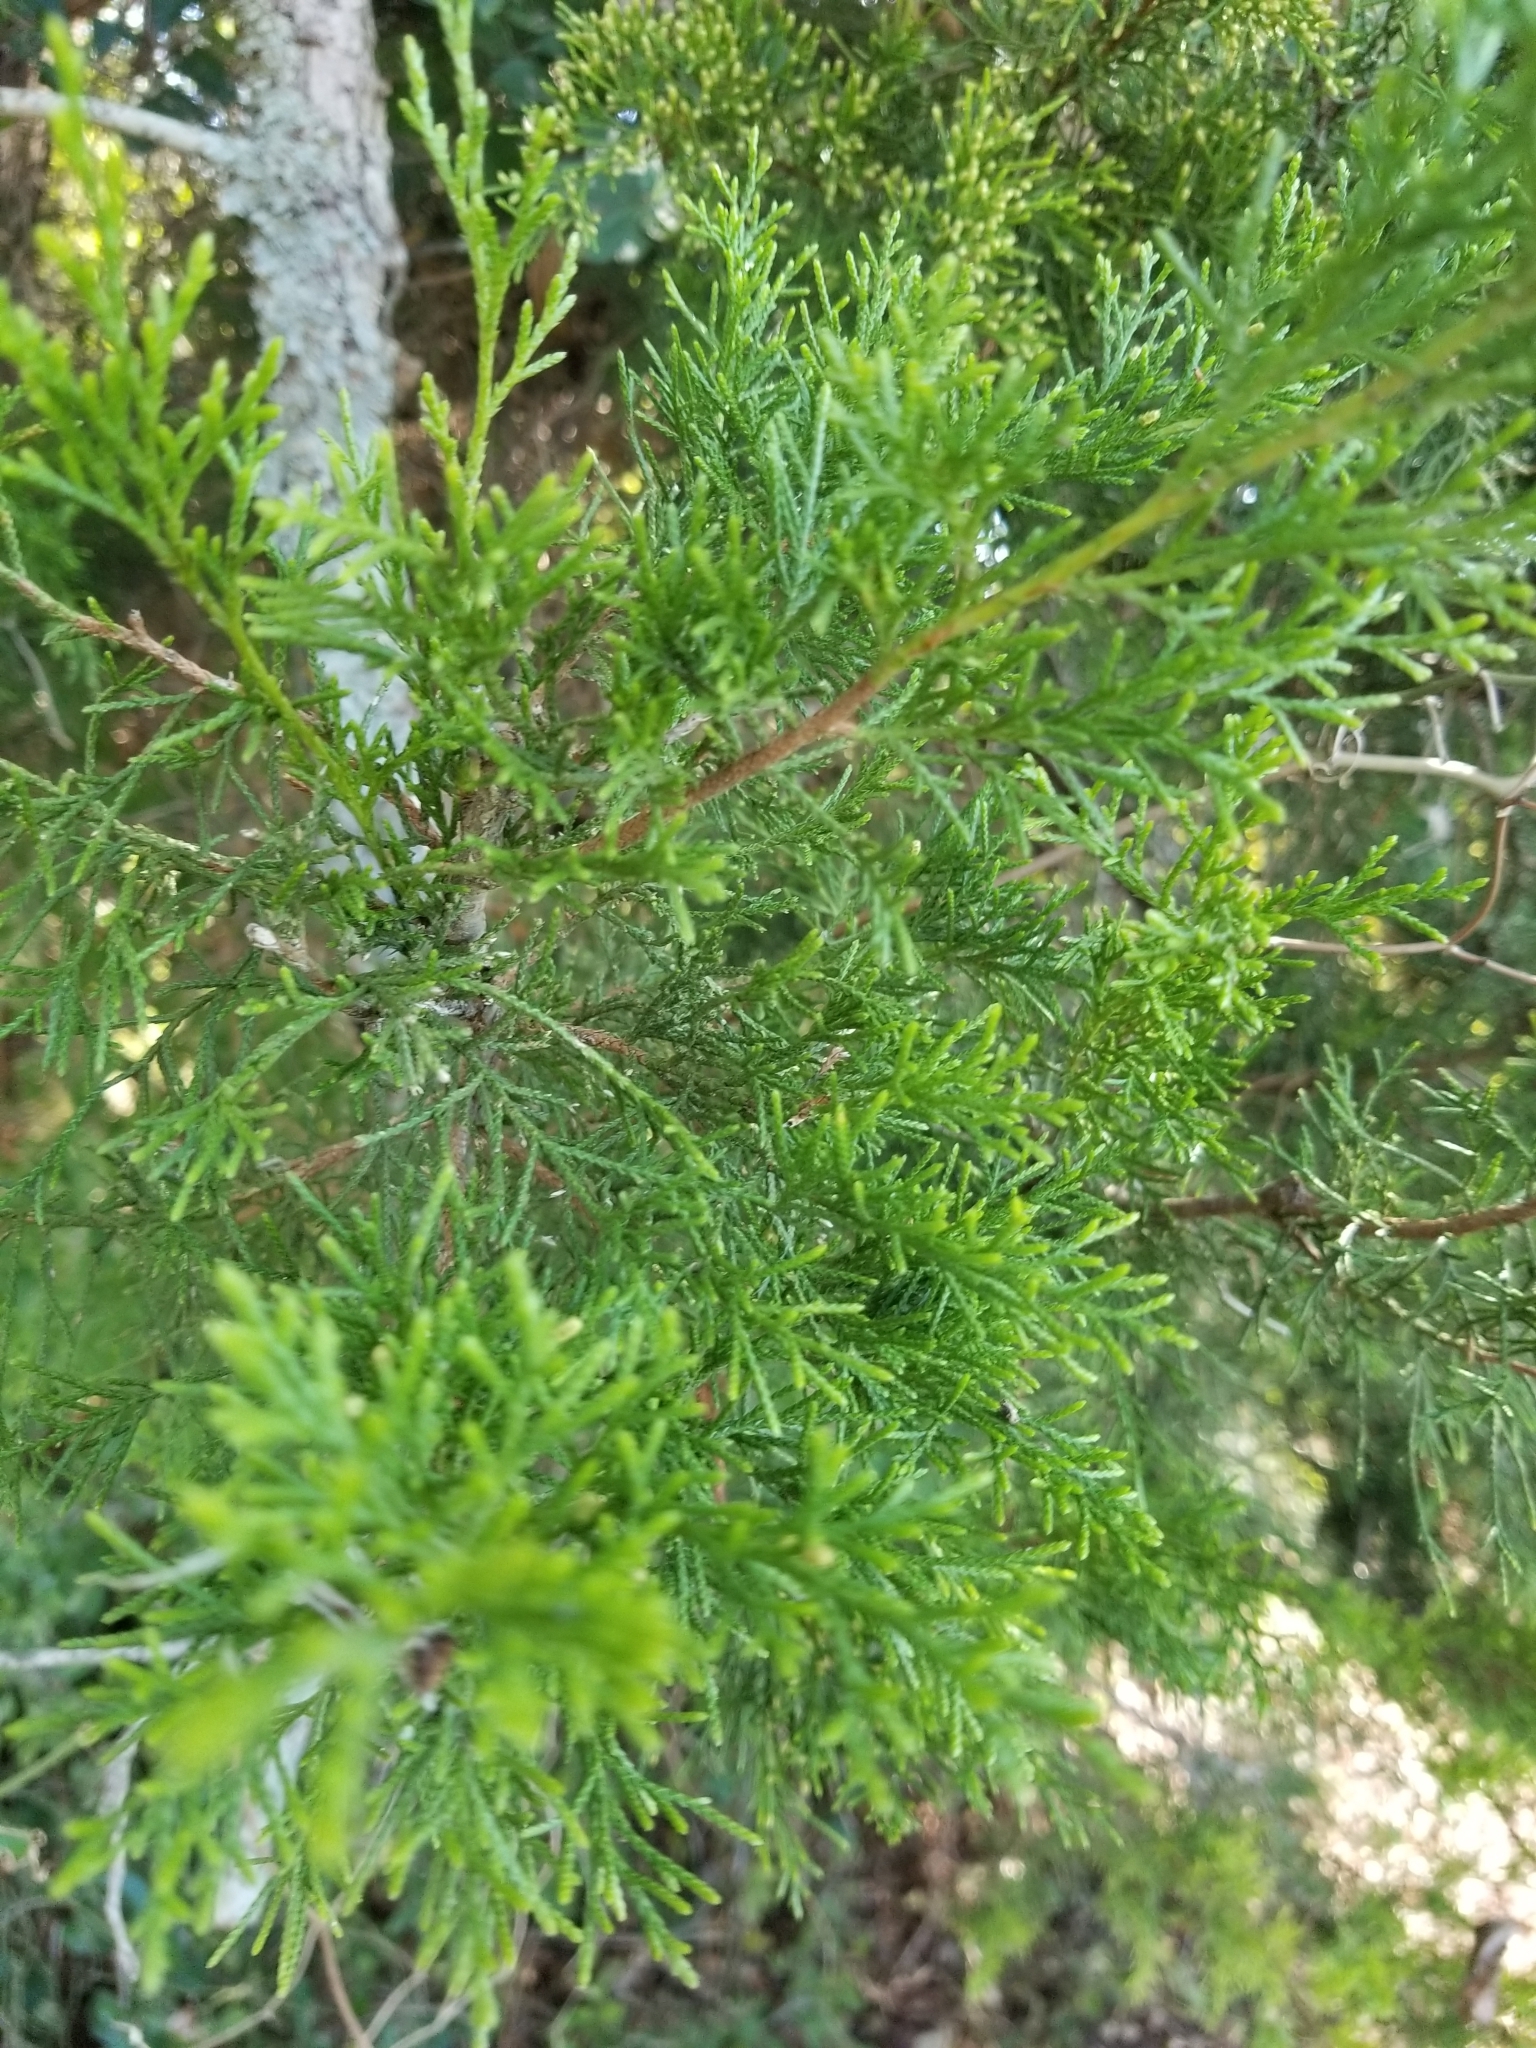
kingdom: Plantae
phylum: Tracheophyta
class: Pinopsida
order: Pinales
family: Cupressaceae
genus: Juniperus
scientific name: Juniperus virginiana
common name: Red juniper
